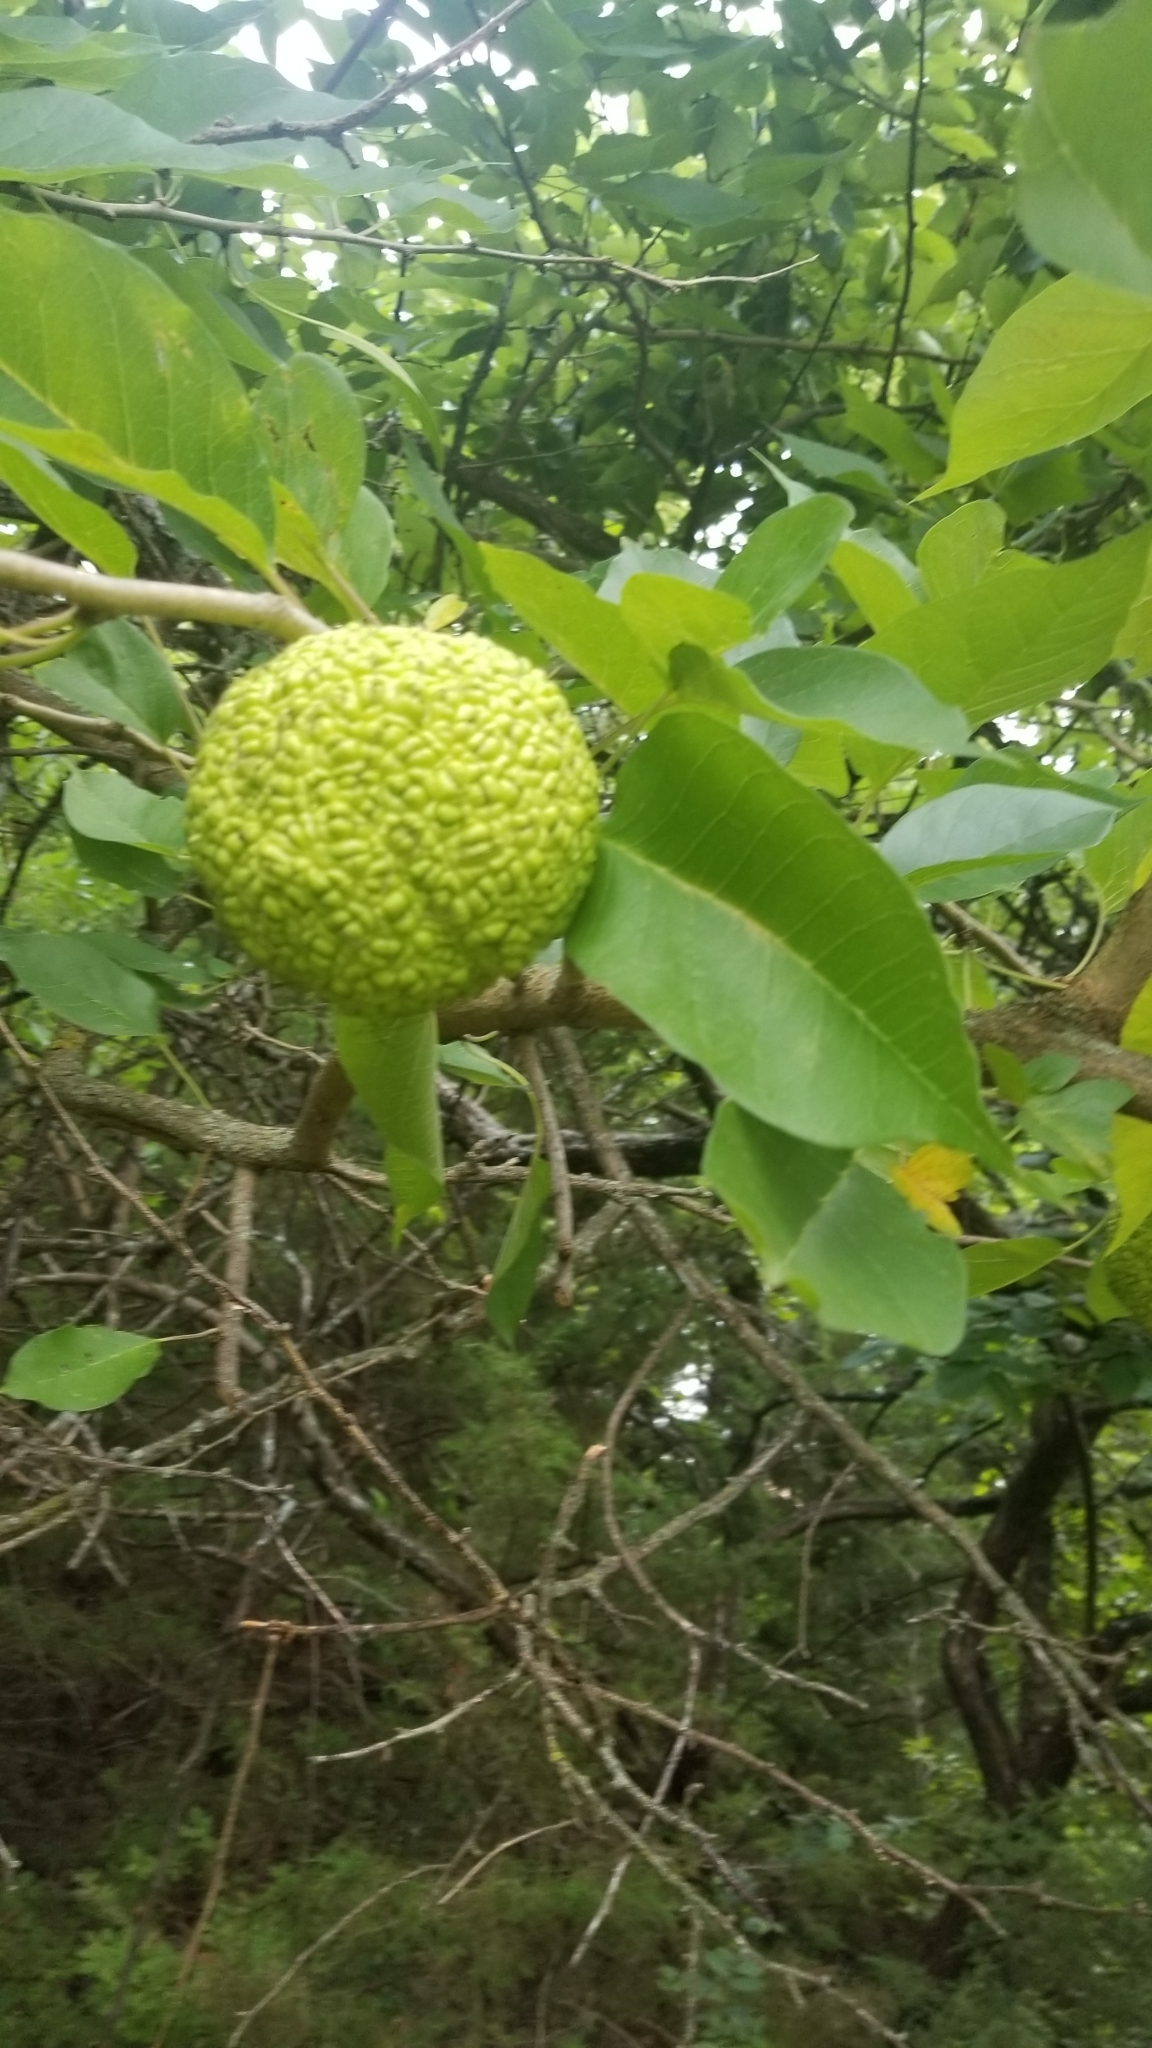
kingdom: Plantae
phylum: Tracheophyta
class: Magnoliopsida
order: Rosales
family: Moraceae
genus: Maclura
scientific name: Maclura pomifera
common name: Osage-orange
